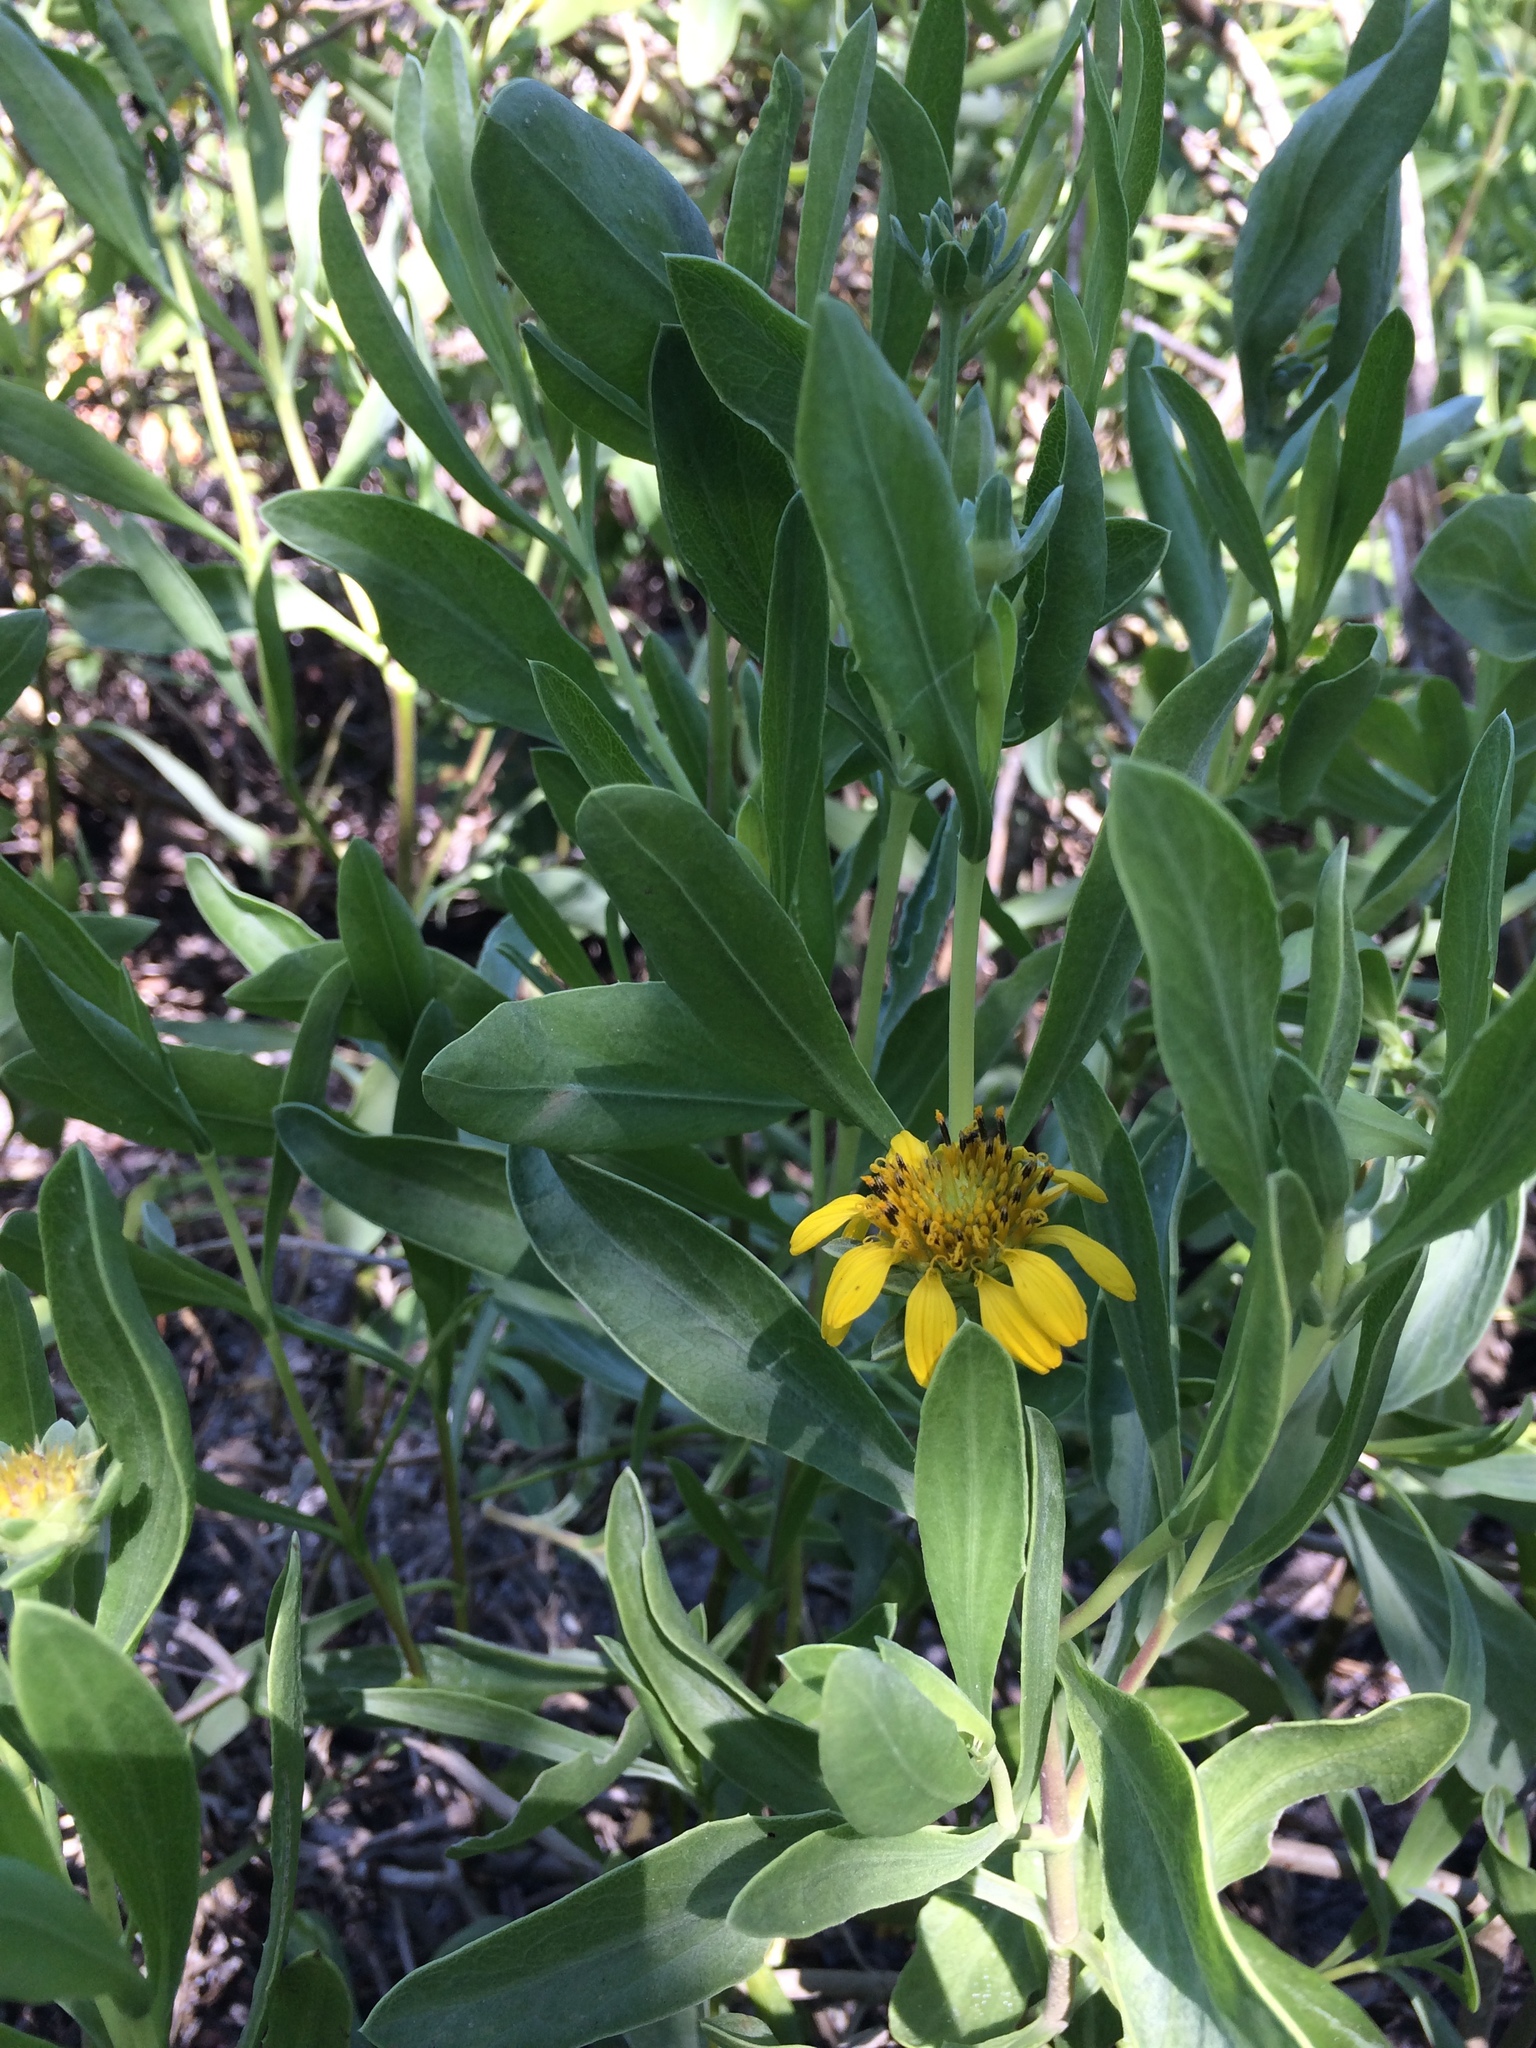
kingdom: Plantae
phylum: Tracheophyta
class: Magnoliopsida
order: Asterales
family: Asteraceae
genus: Borrichia
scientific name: Borrichia frutescens
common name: Sea oxeye
